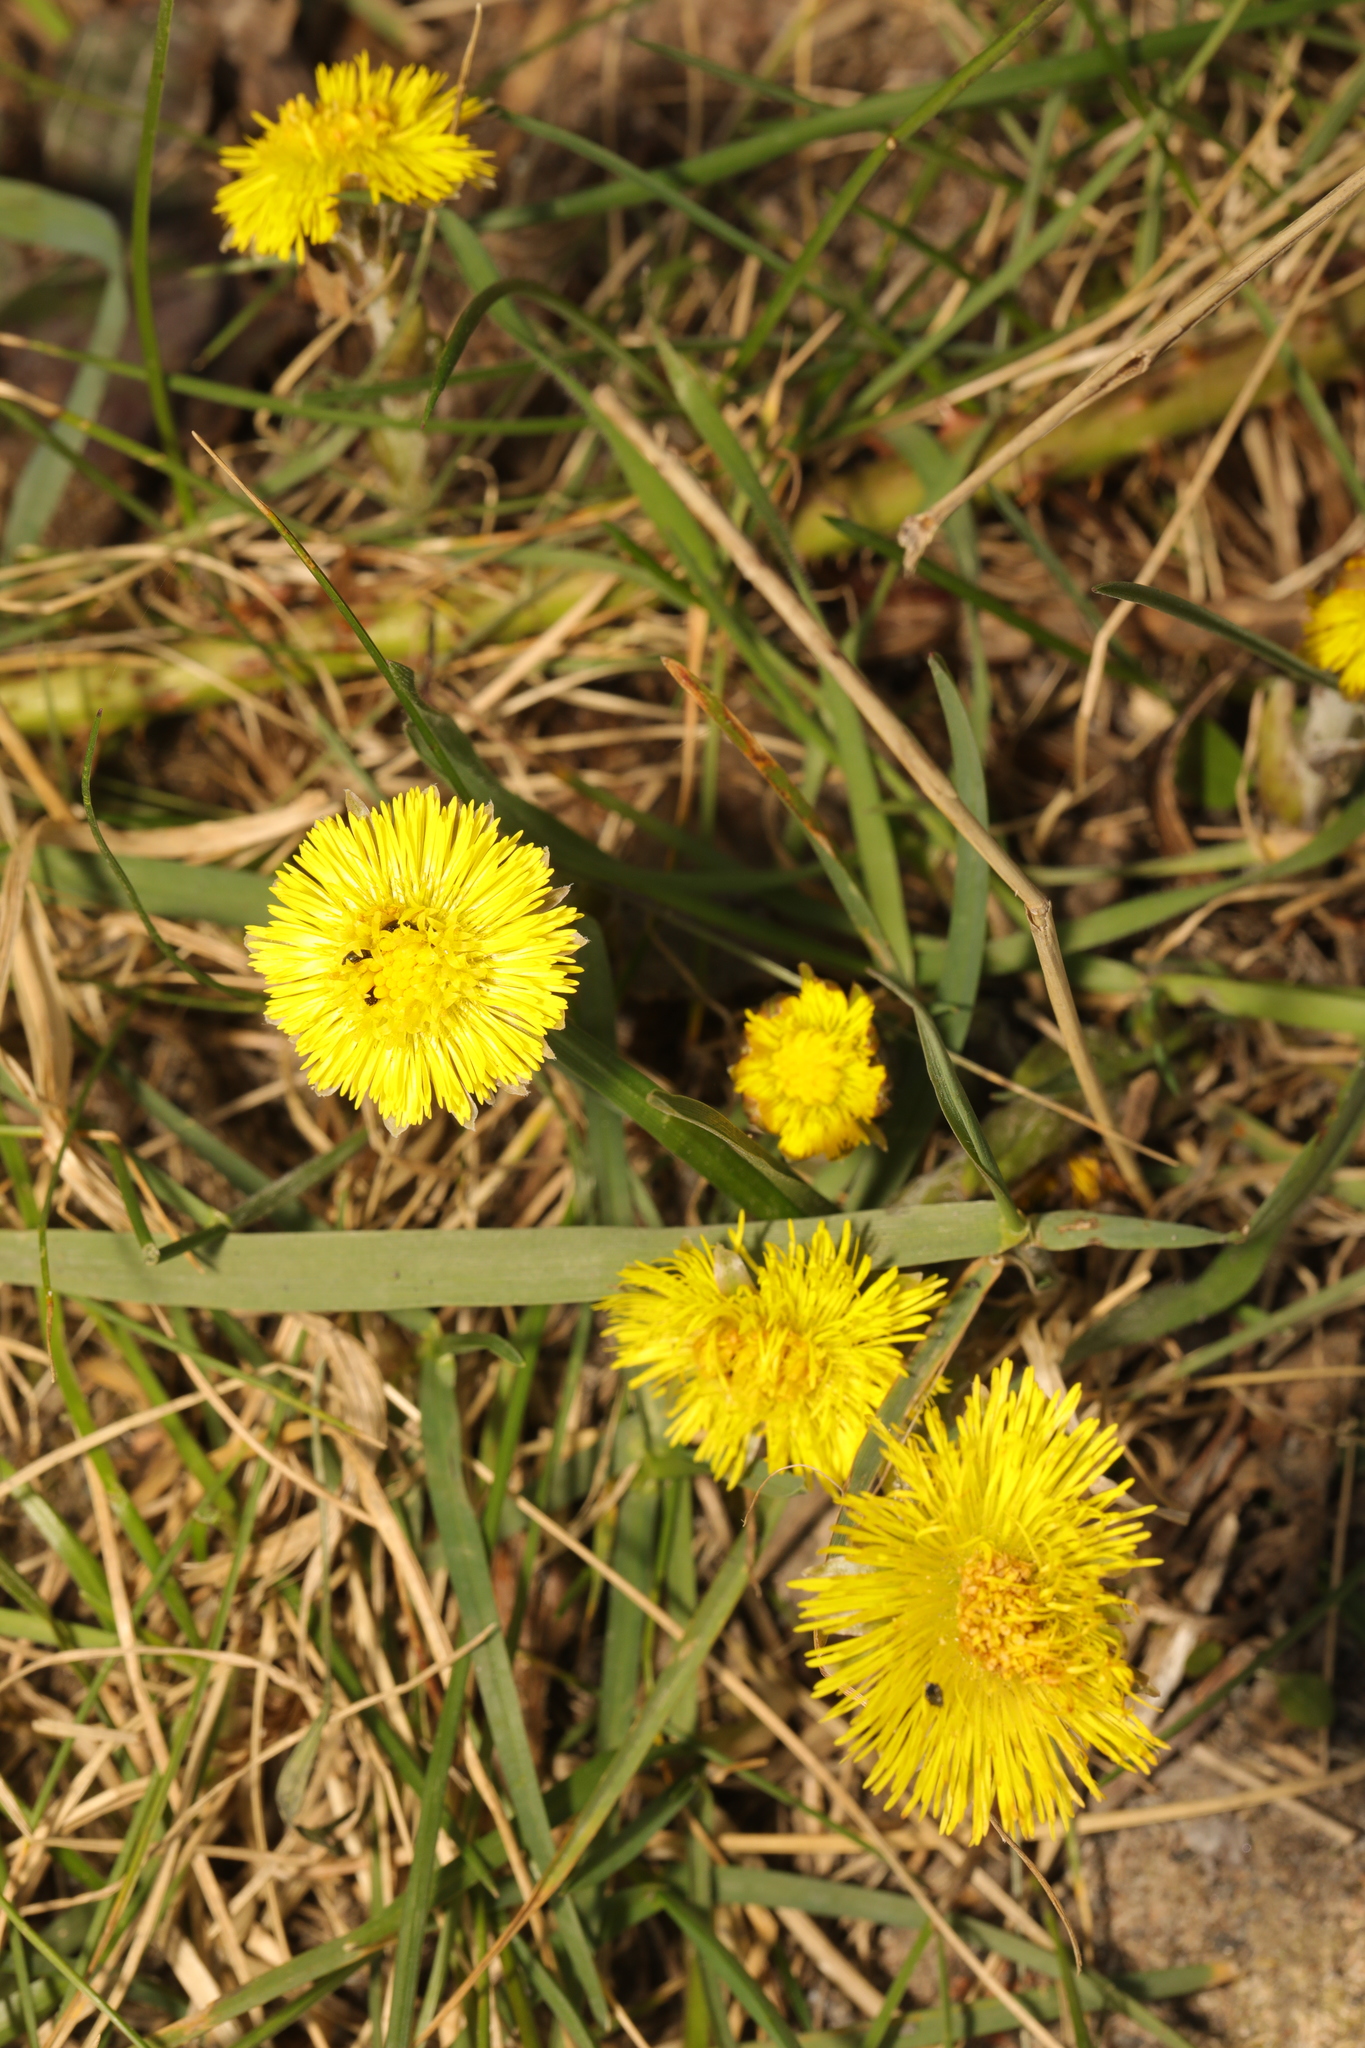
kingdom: Plantae
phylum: Tracheophyta
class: Magnoliopsida
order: Asterales
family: Asteraceae
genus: Tussilago
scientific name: Tussilago farfara
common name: Coltsfoot
